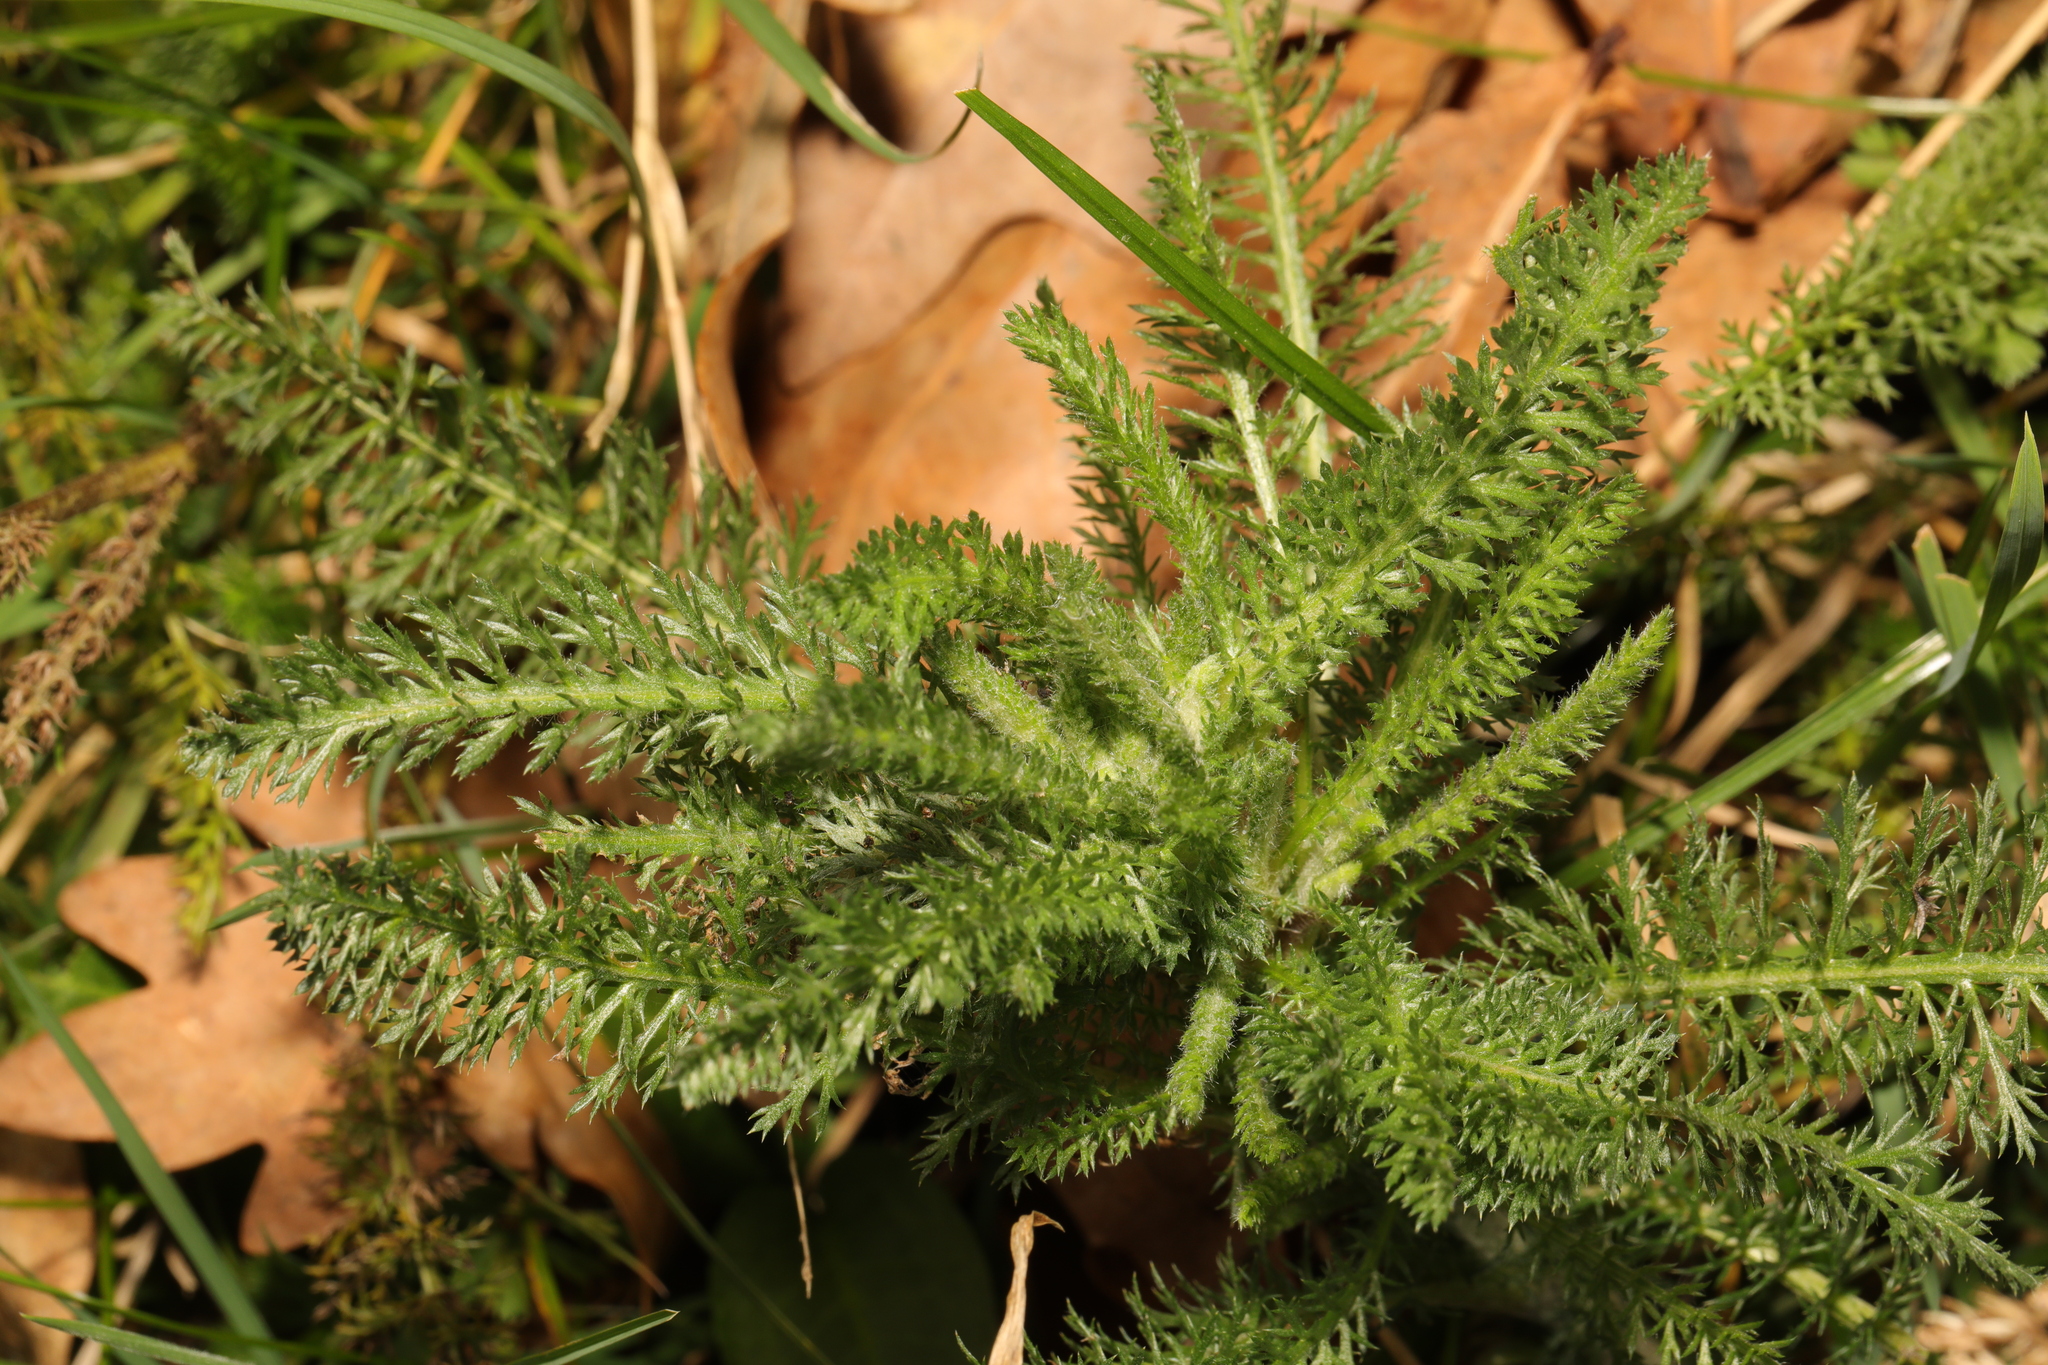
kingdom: Plantae
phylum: Tracheophyta
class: Magnoliopsida
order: Asterales
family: Asteraceae
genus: Achillea
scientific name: Achillea millefolium
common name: Yarrow
